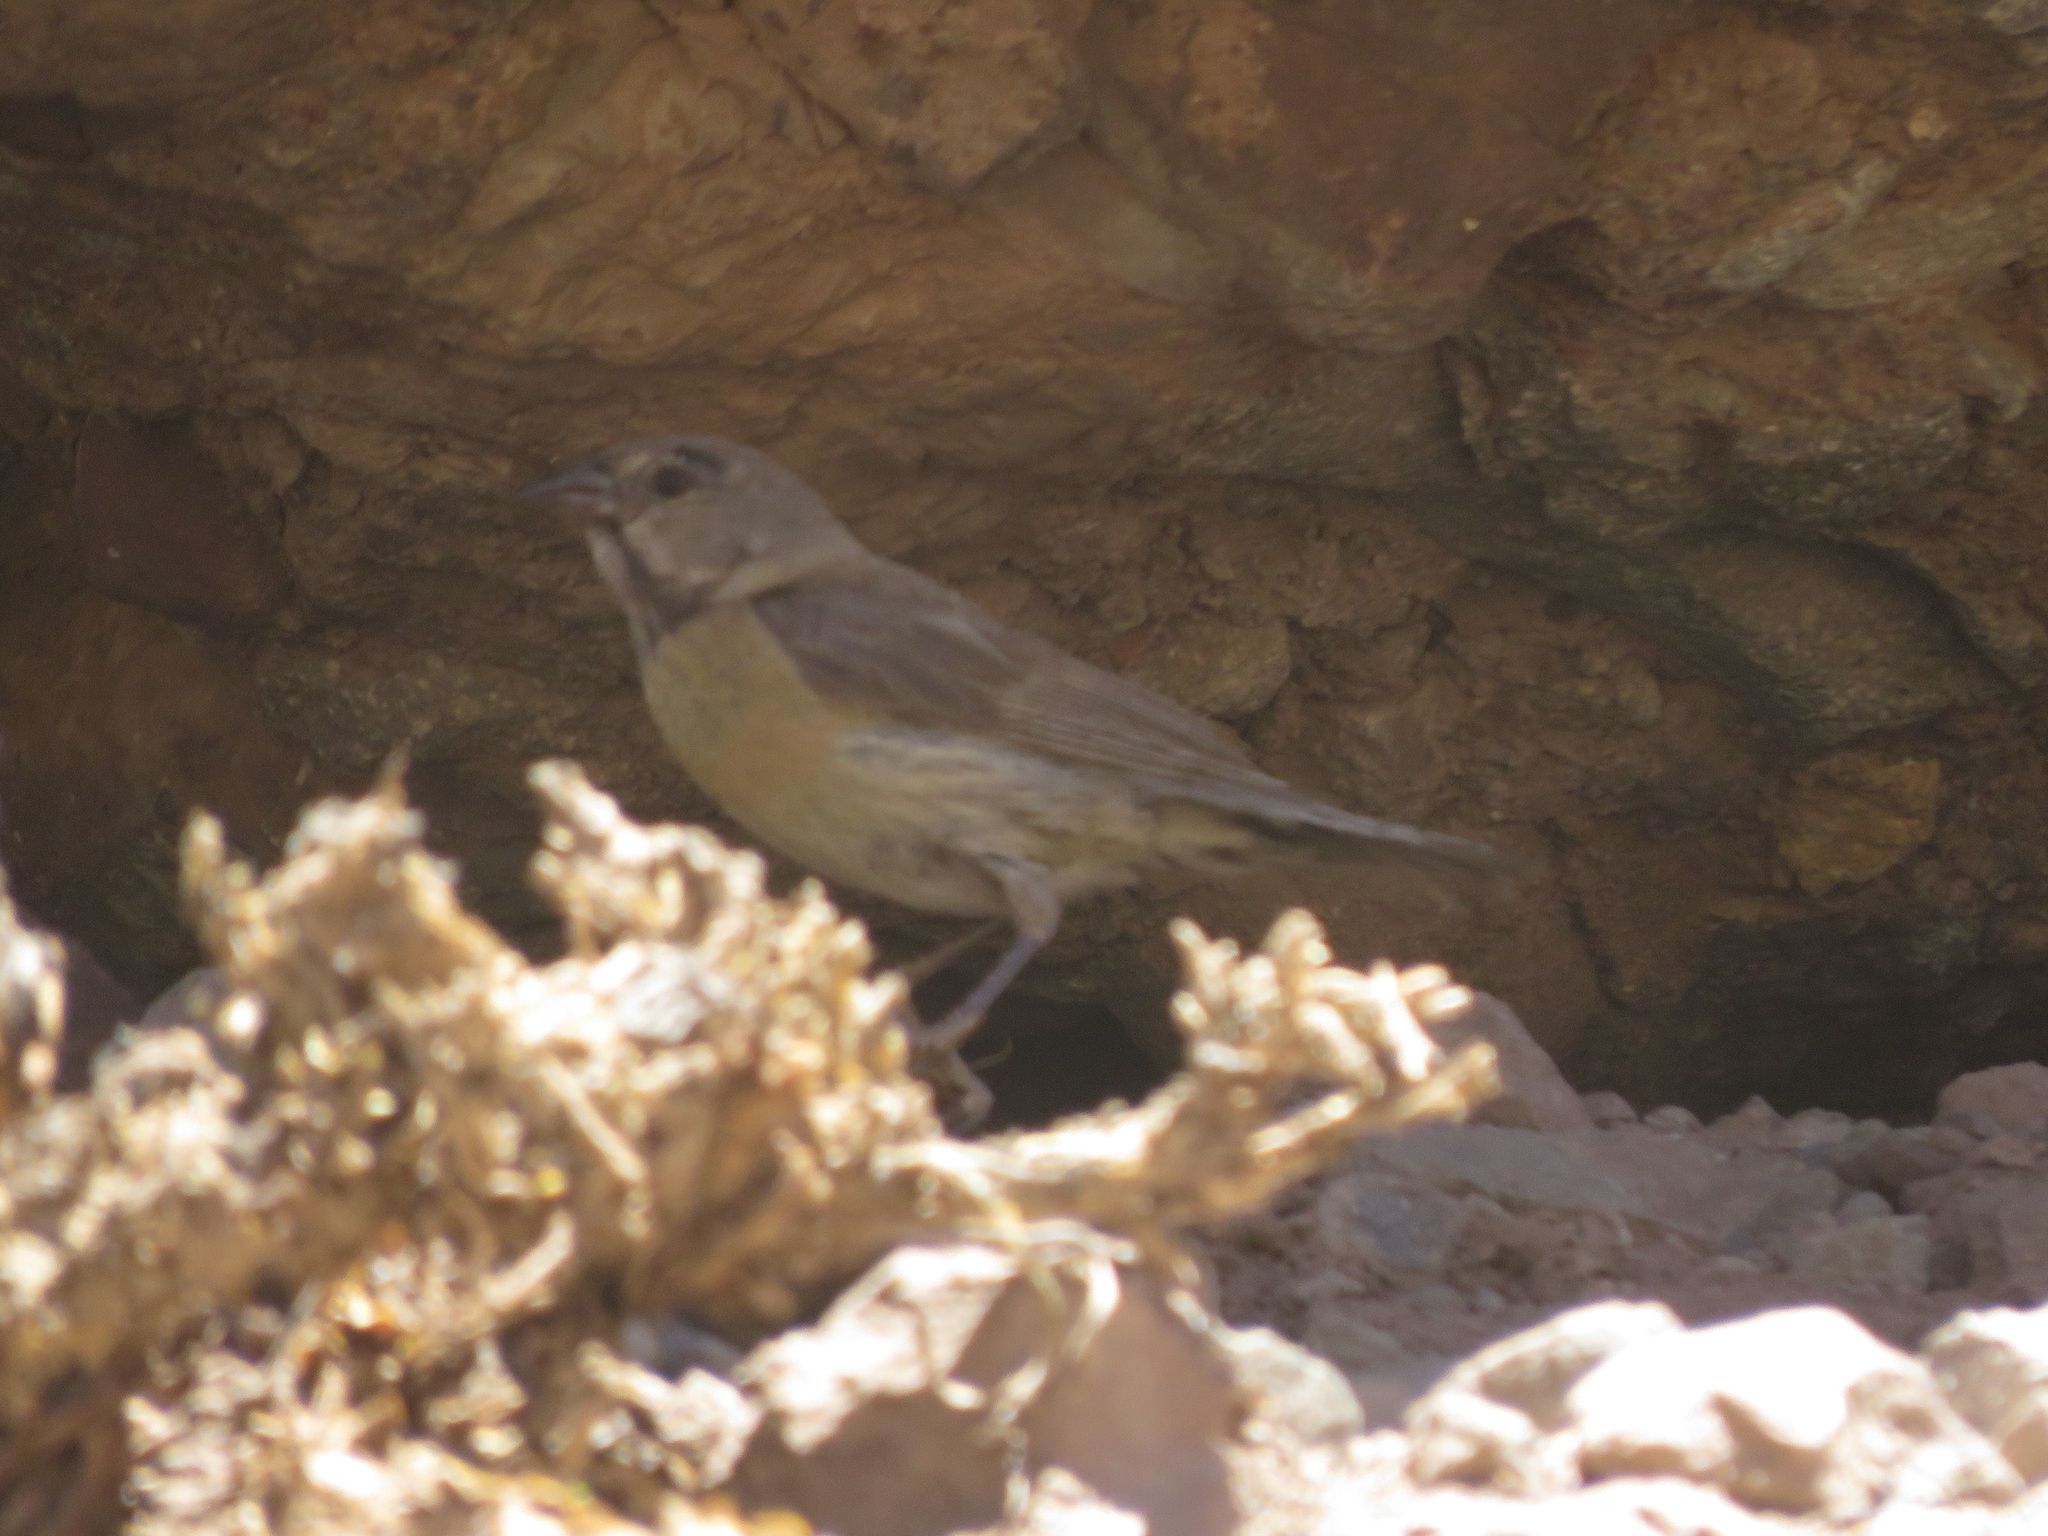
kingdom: Animalia
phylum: Chordata
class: Aves
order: Passeriformes
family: Thraupidae
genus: Phrygilus
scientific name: Phrygilus gayi
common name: Grey-hooded sierra finch
